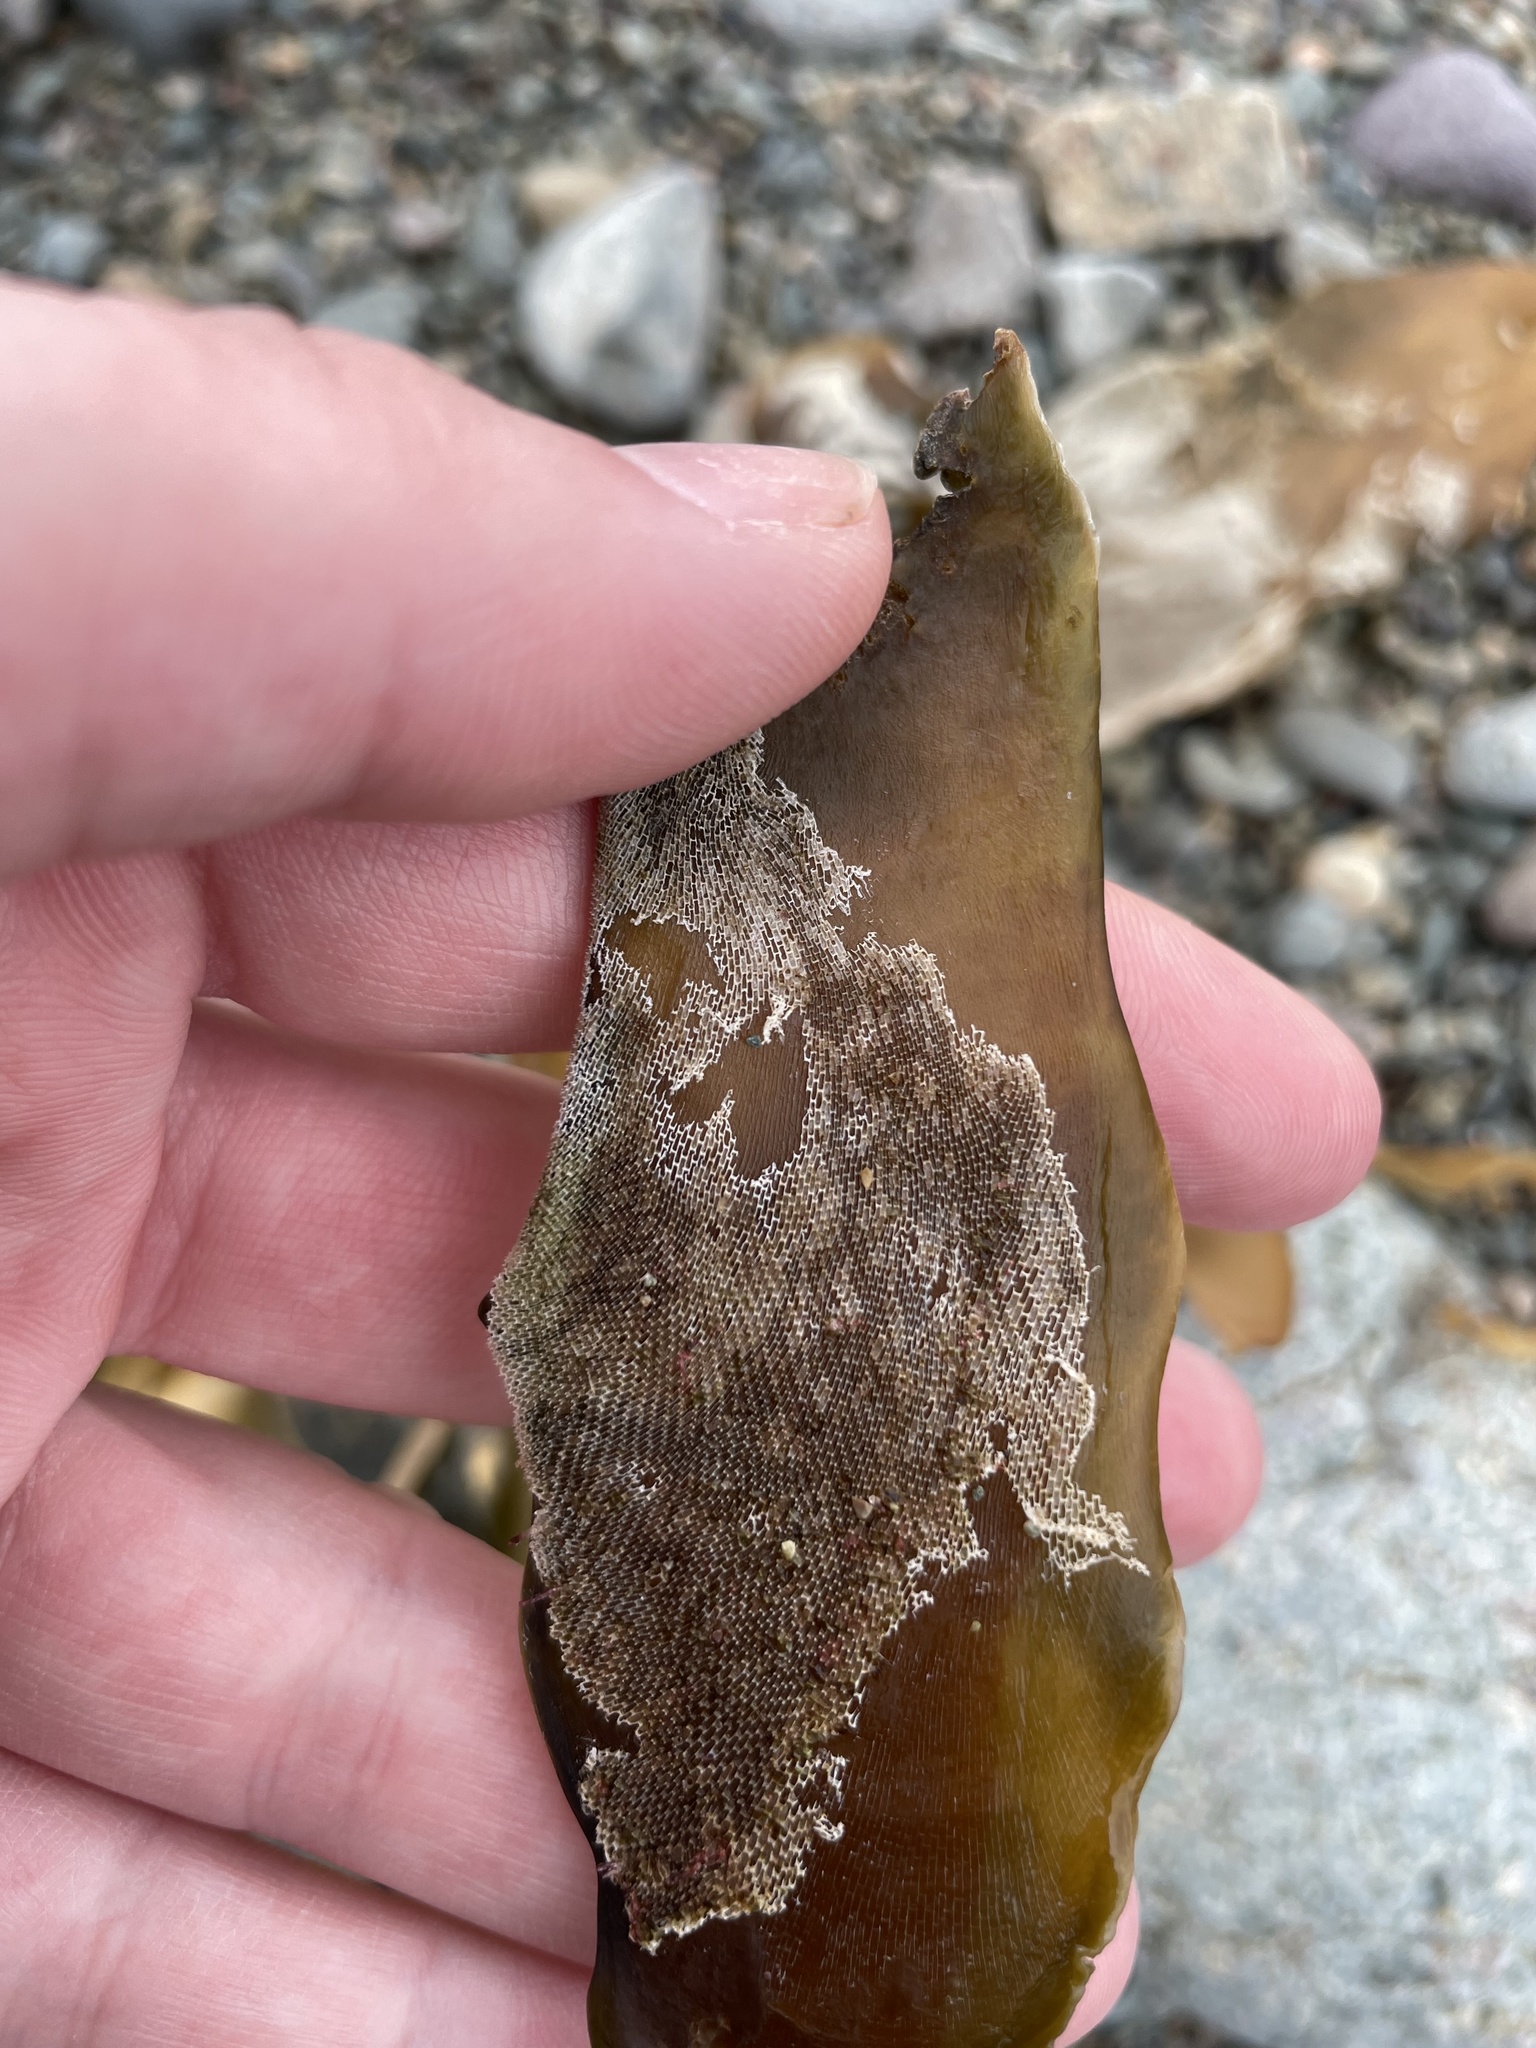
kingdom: Animalia
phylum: Bryozoa
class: Gymnolaemata
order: Cheilostomatida
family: Membraniporidae
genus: Membranipora
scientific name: Membranipora membranacea
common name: Sea mat
